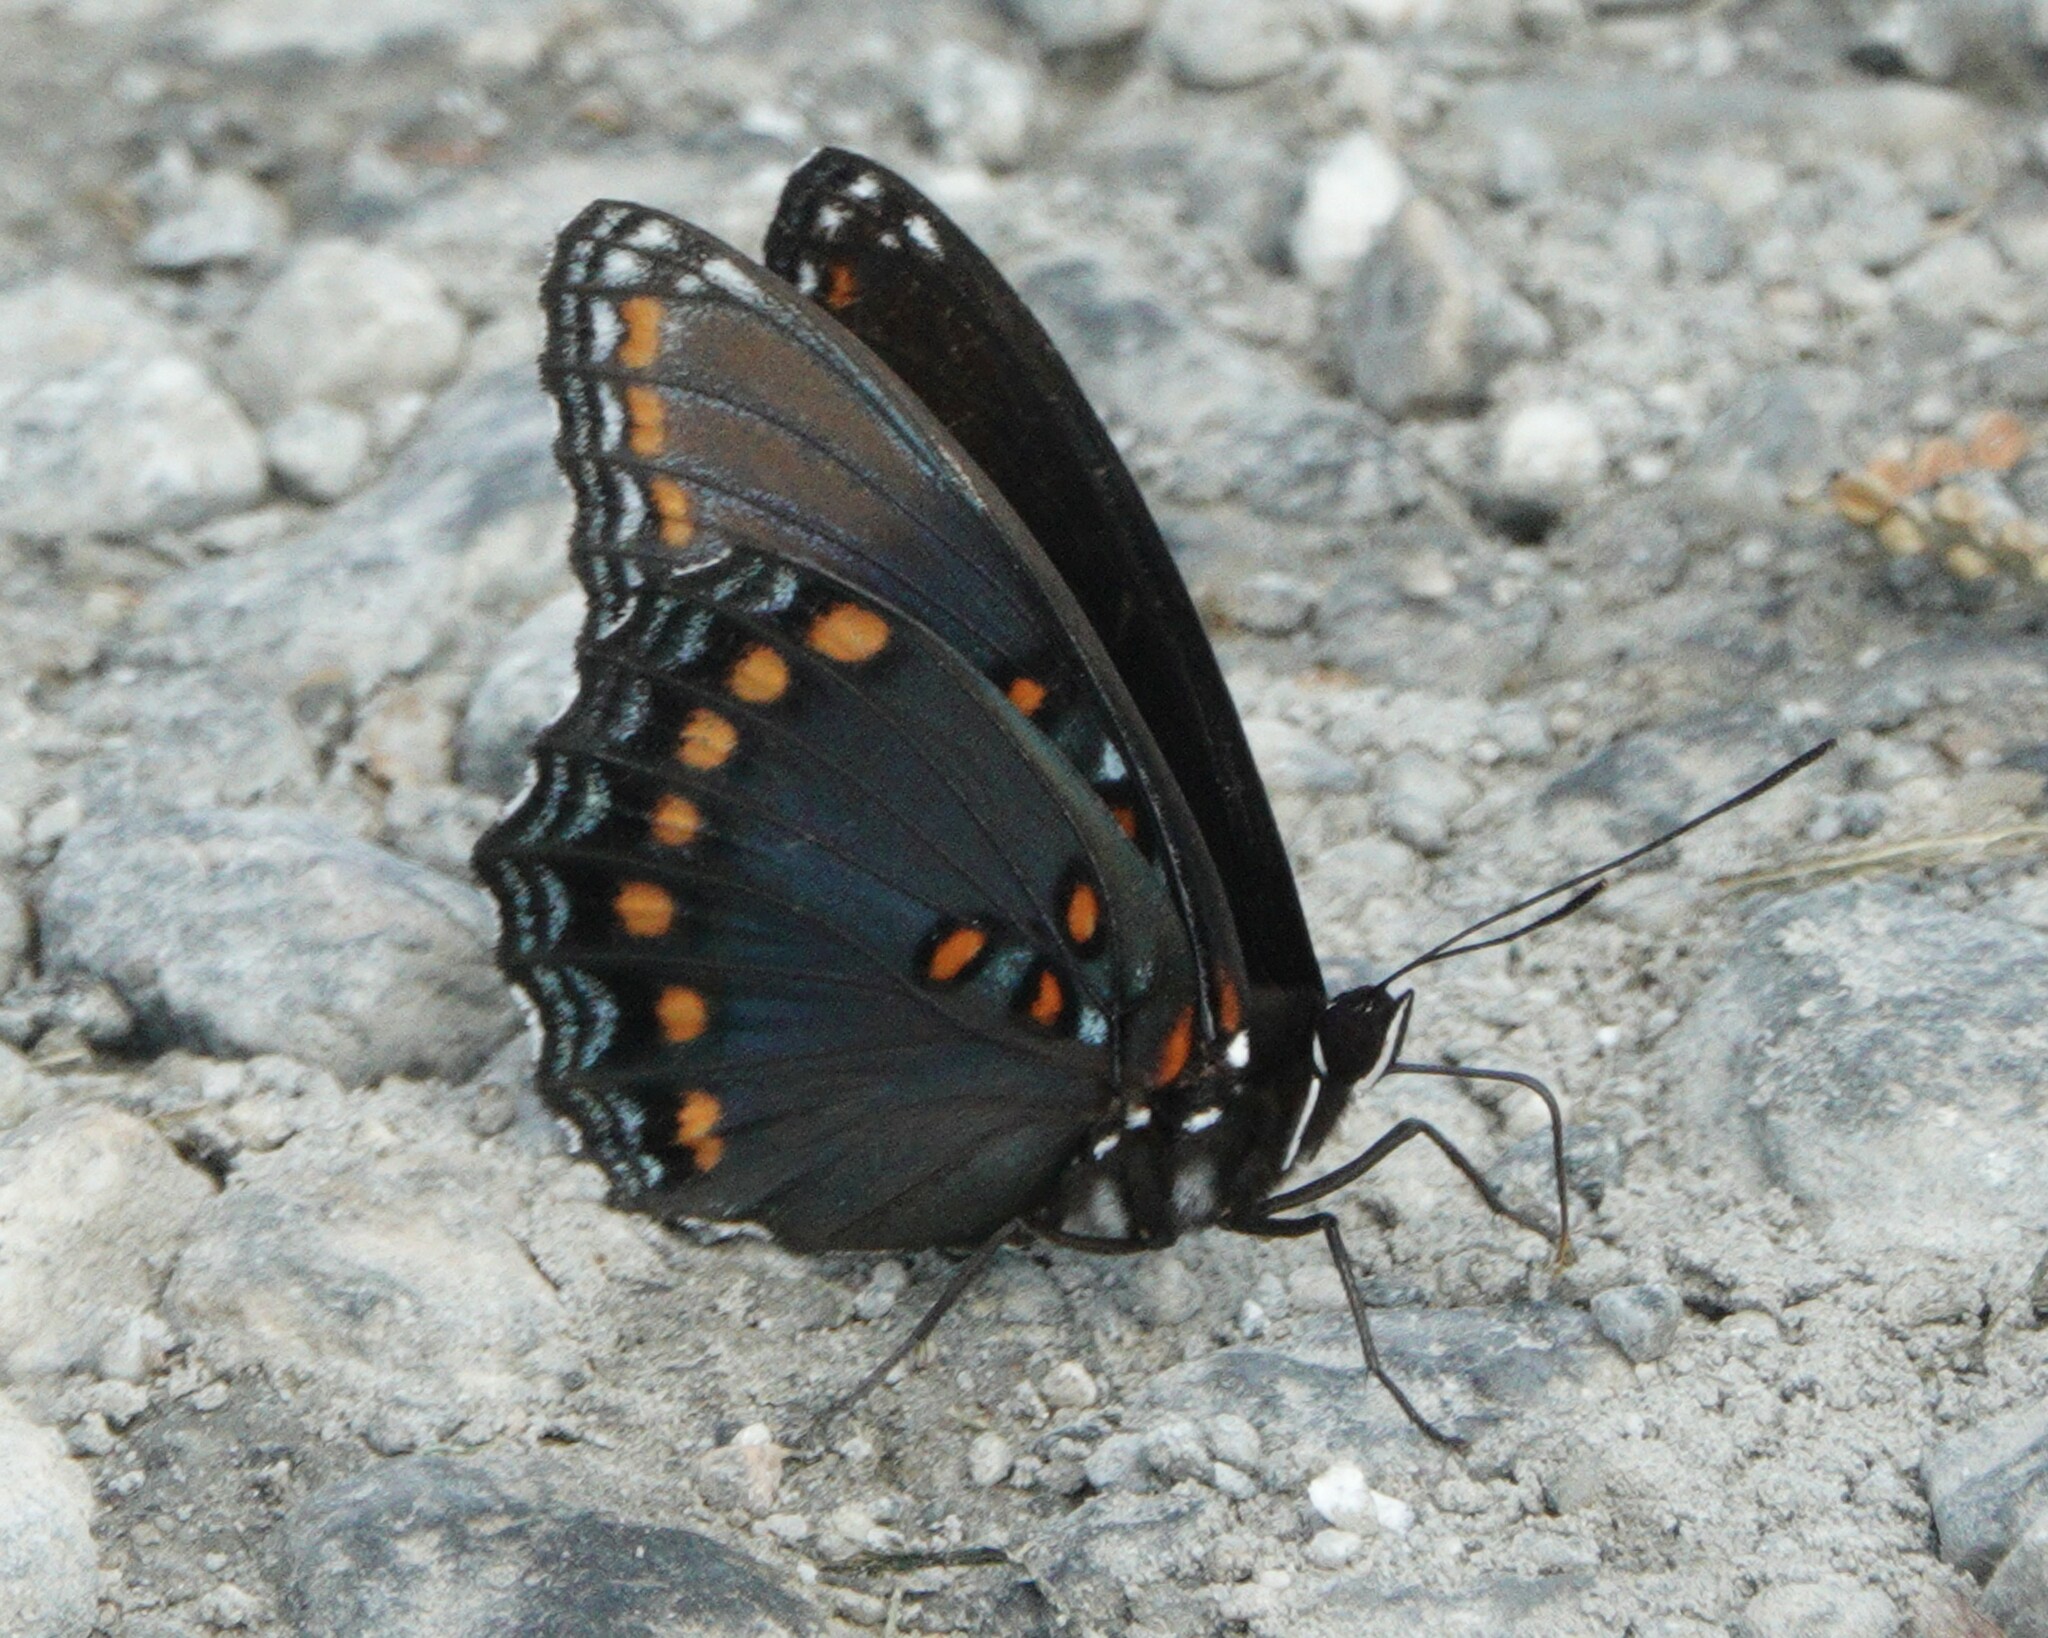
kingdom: Animalia
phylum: Arthropoda
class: Insecta
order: Lepidoptera
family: Nymphalidae
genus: Limenitis
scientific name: Limenitis astyanax
